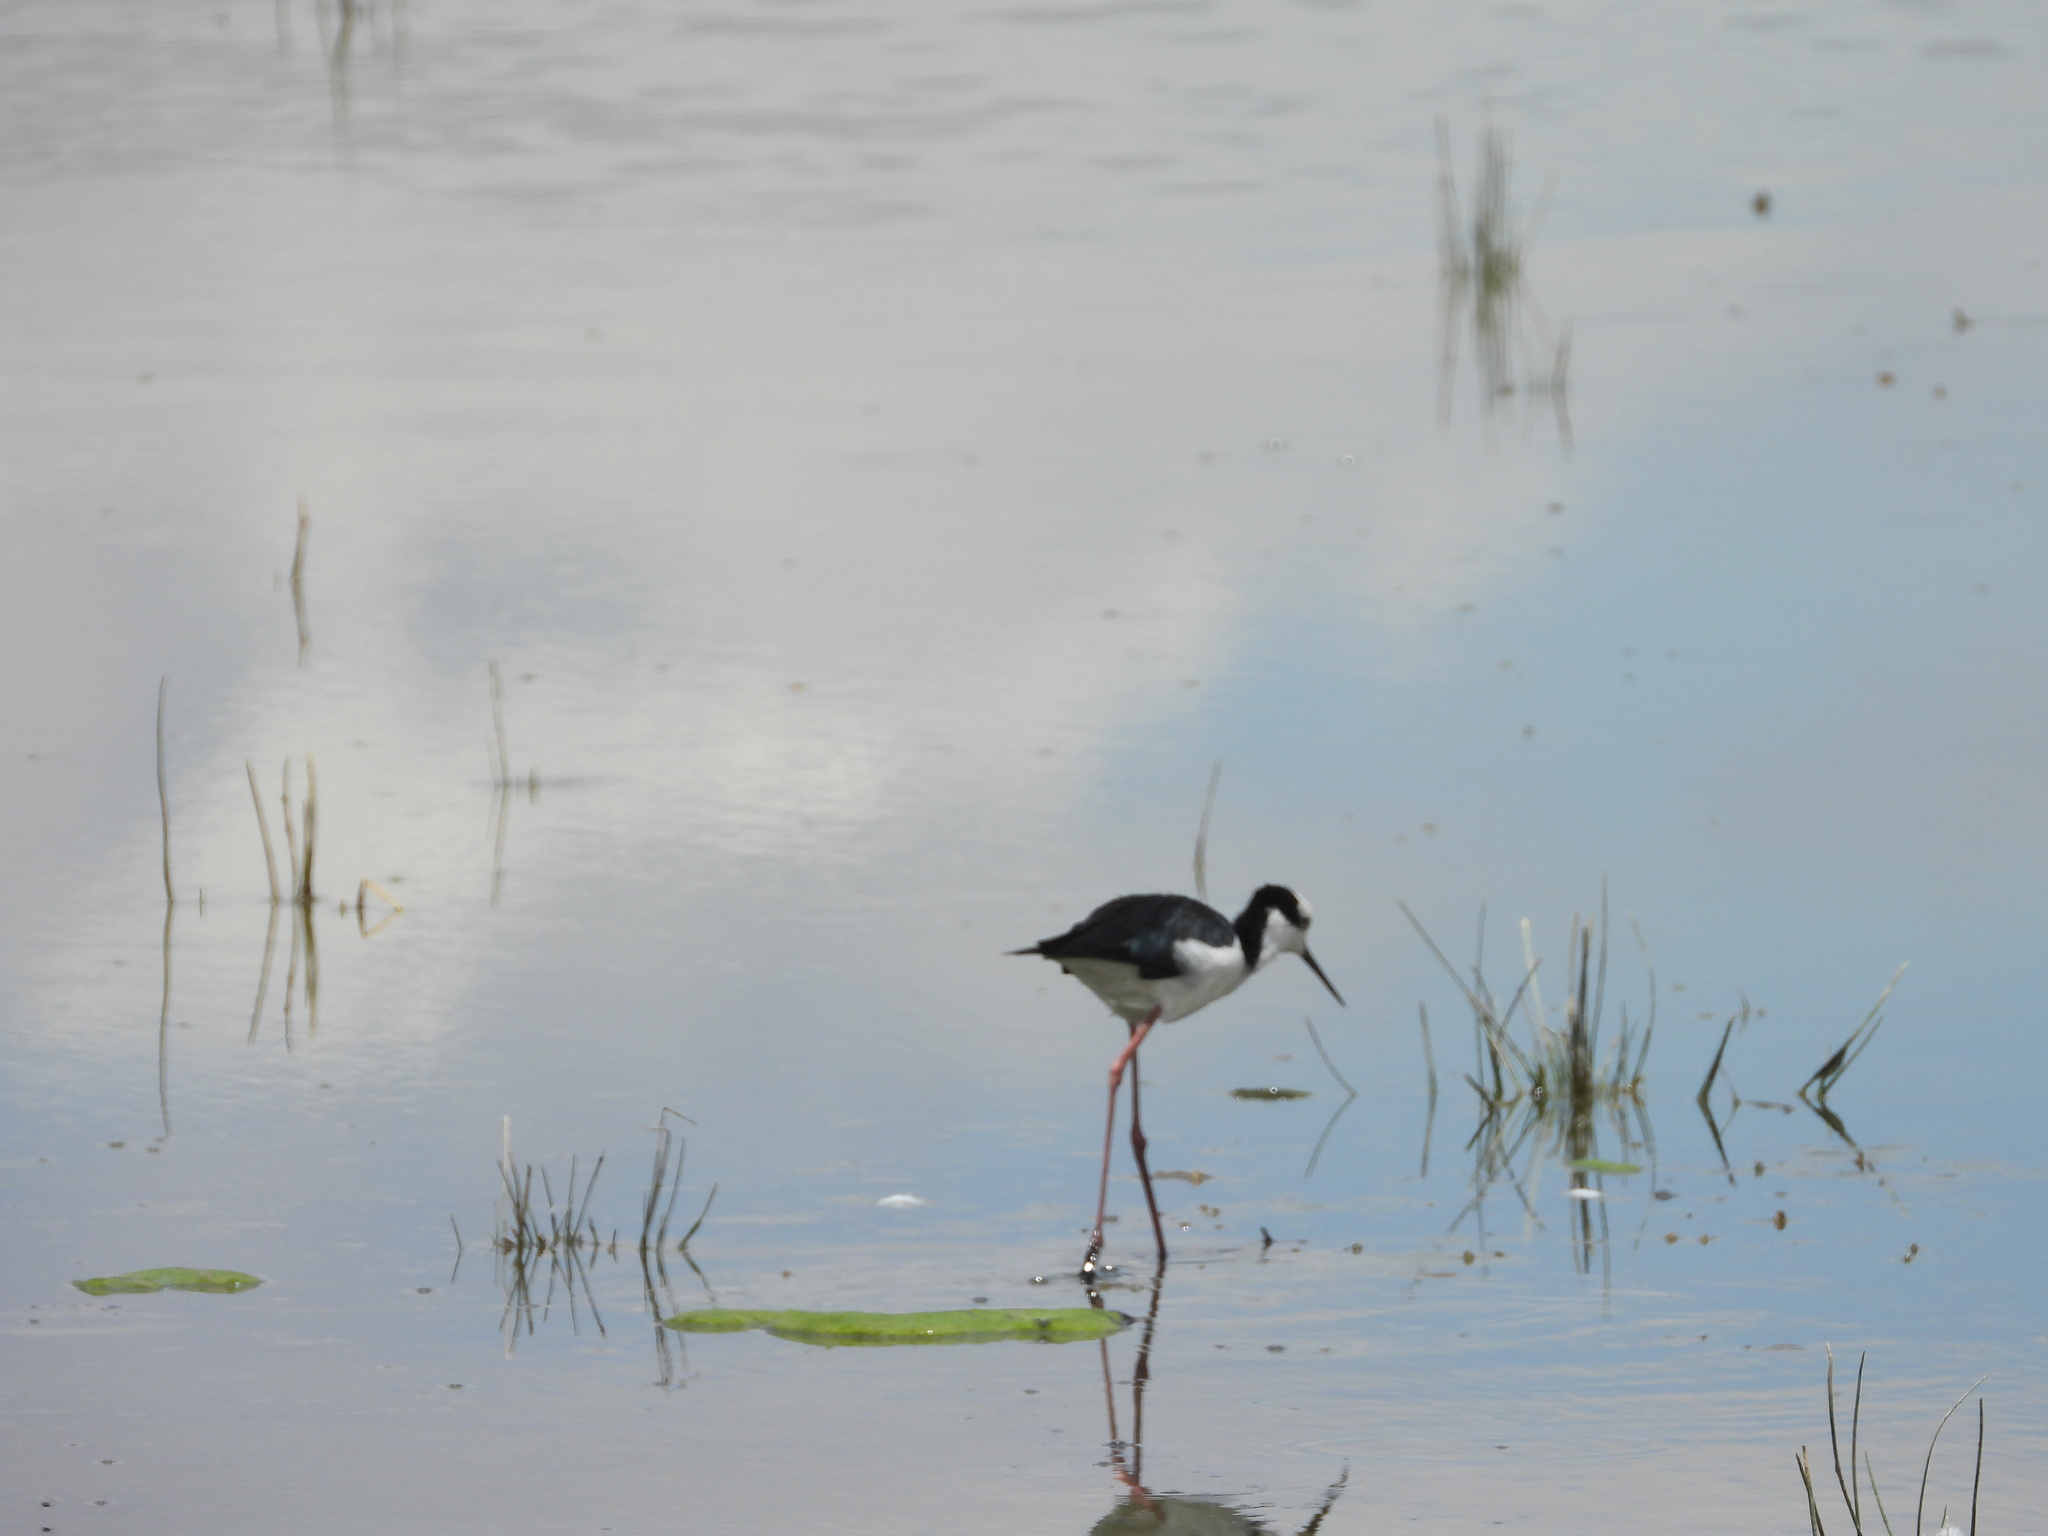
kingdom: Animalia
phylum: Chordata
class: Aves
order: Charadriiformes
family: Recurvirostridae
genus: Himantopus
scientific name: Himantopus mexicanus
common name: Black-necked stilt
